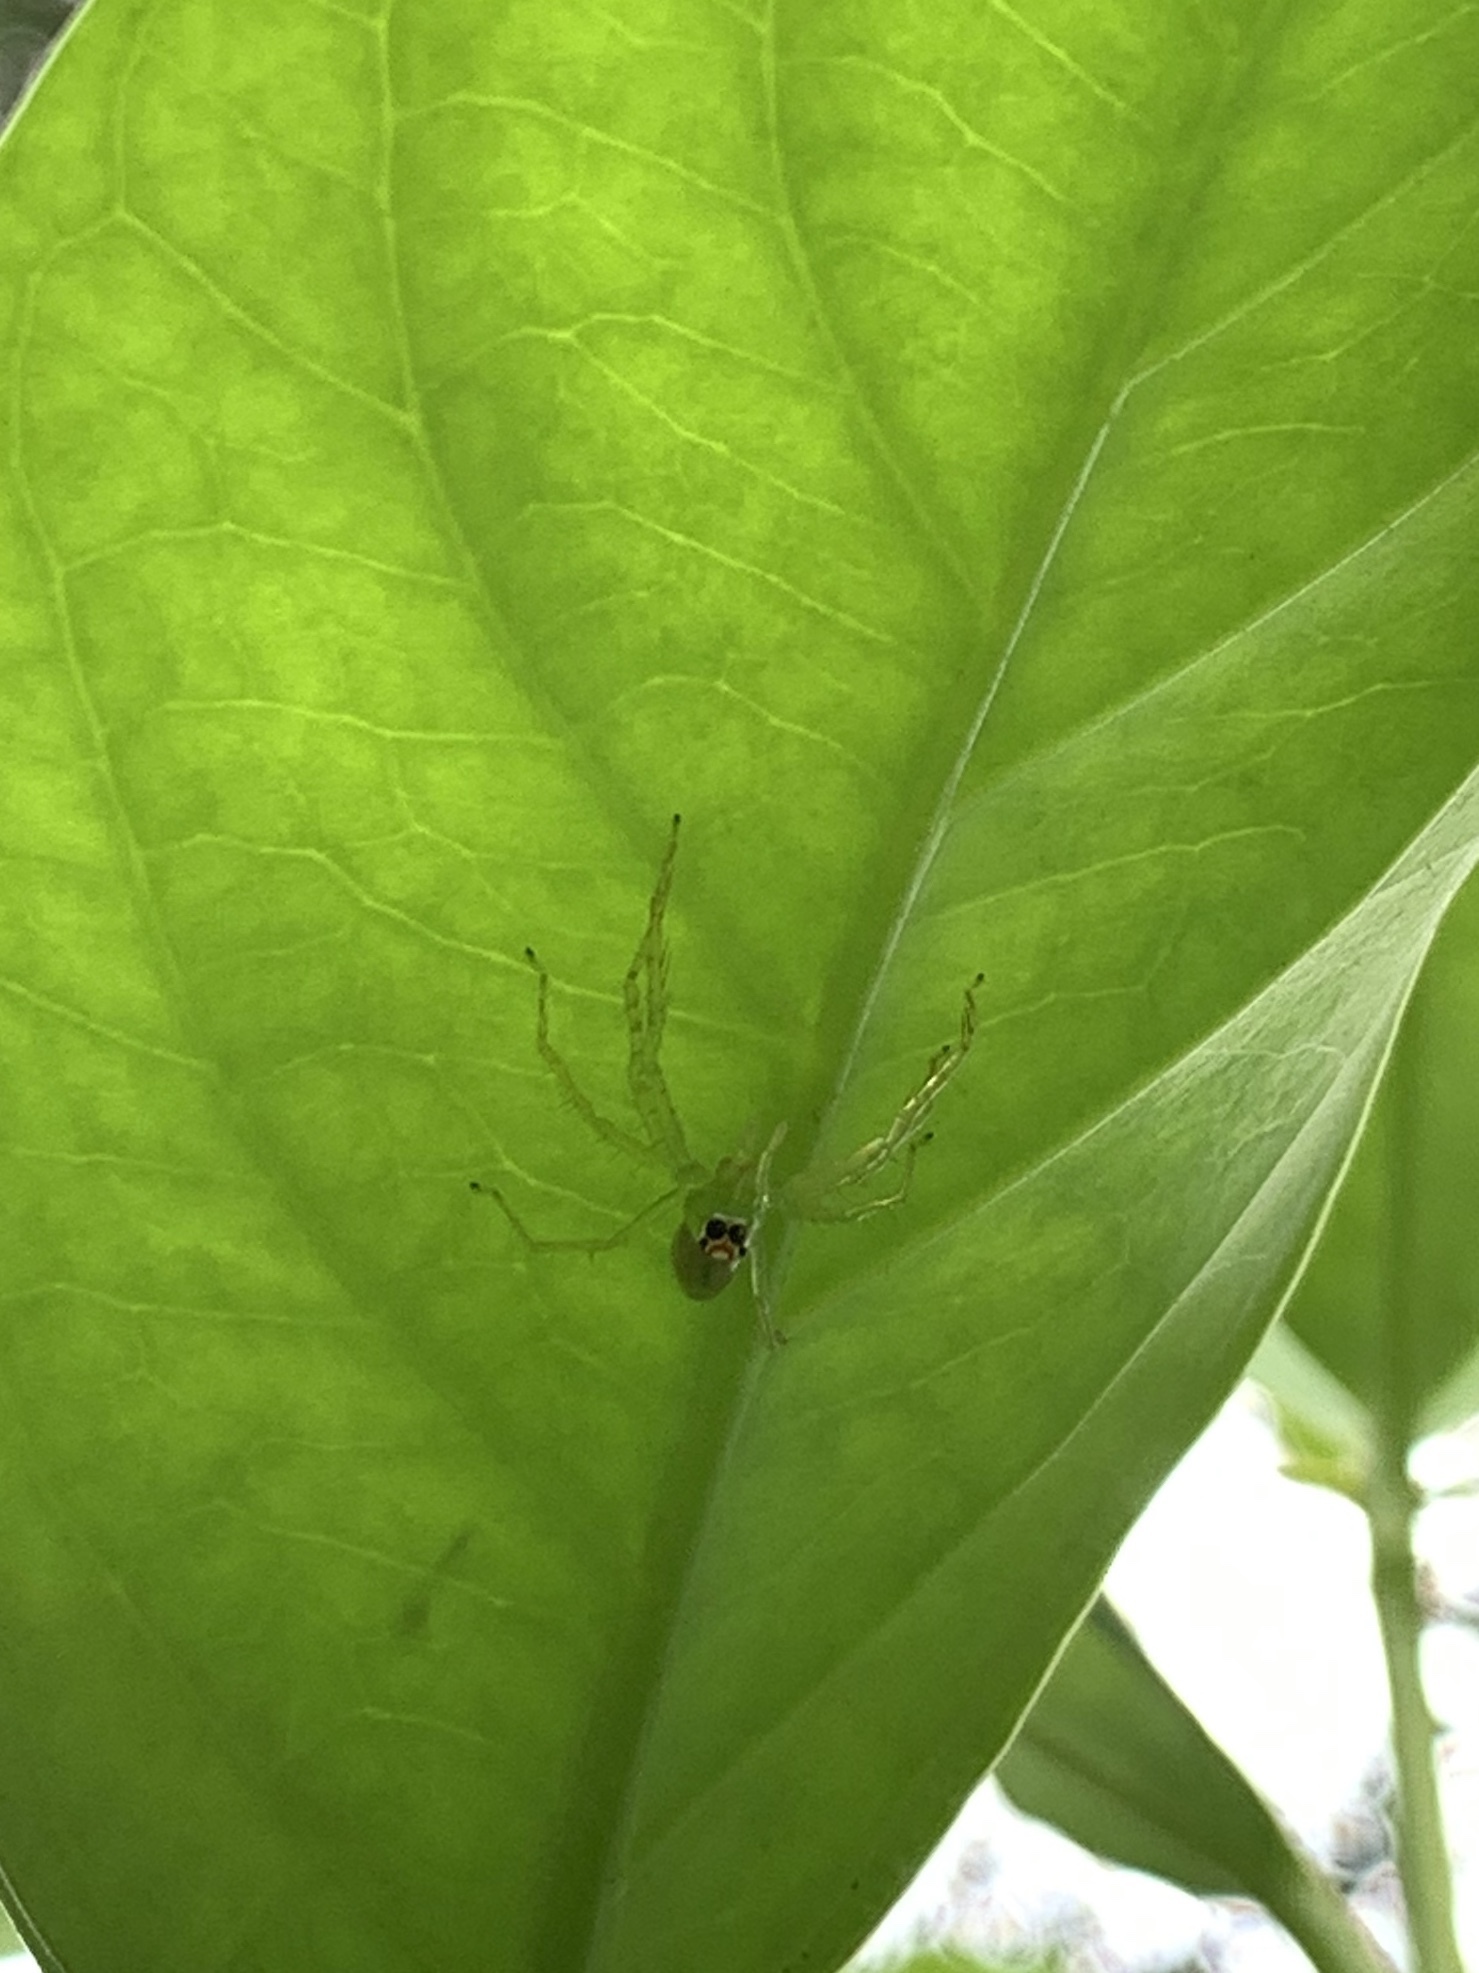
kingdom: Animalia
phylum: Arthropoda
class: Arachnida
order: Araneae
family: Salticidae
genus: Lyssomanes
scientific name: Lyssomanes viridis
